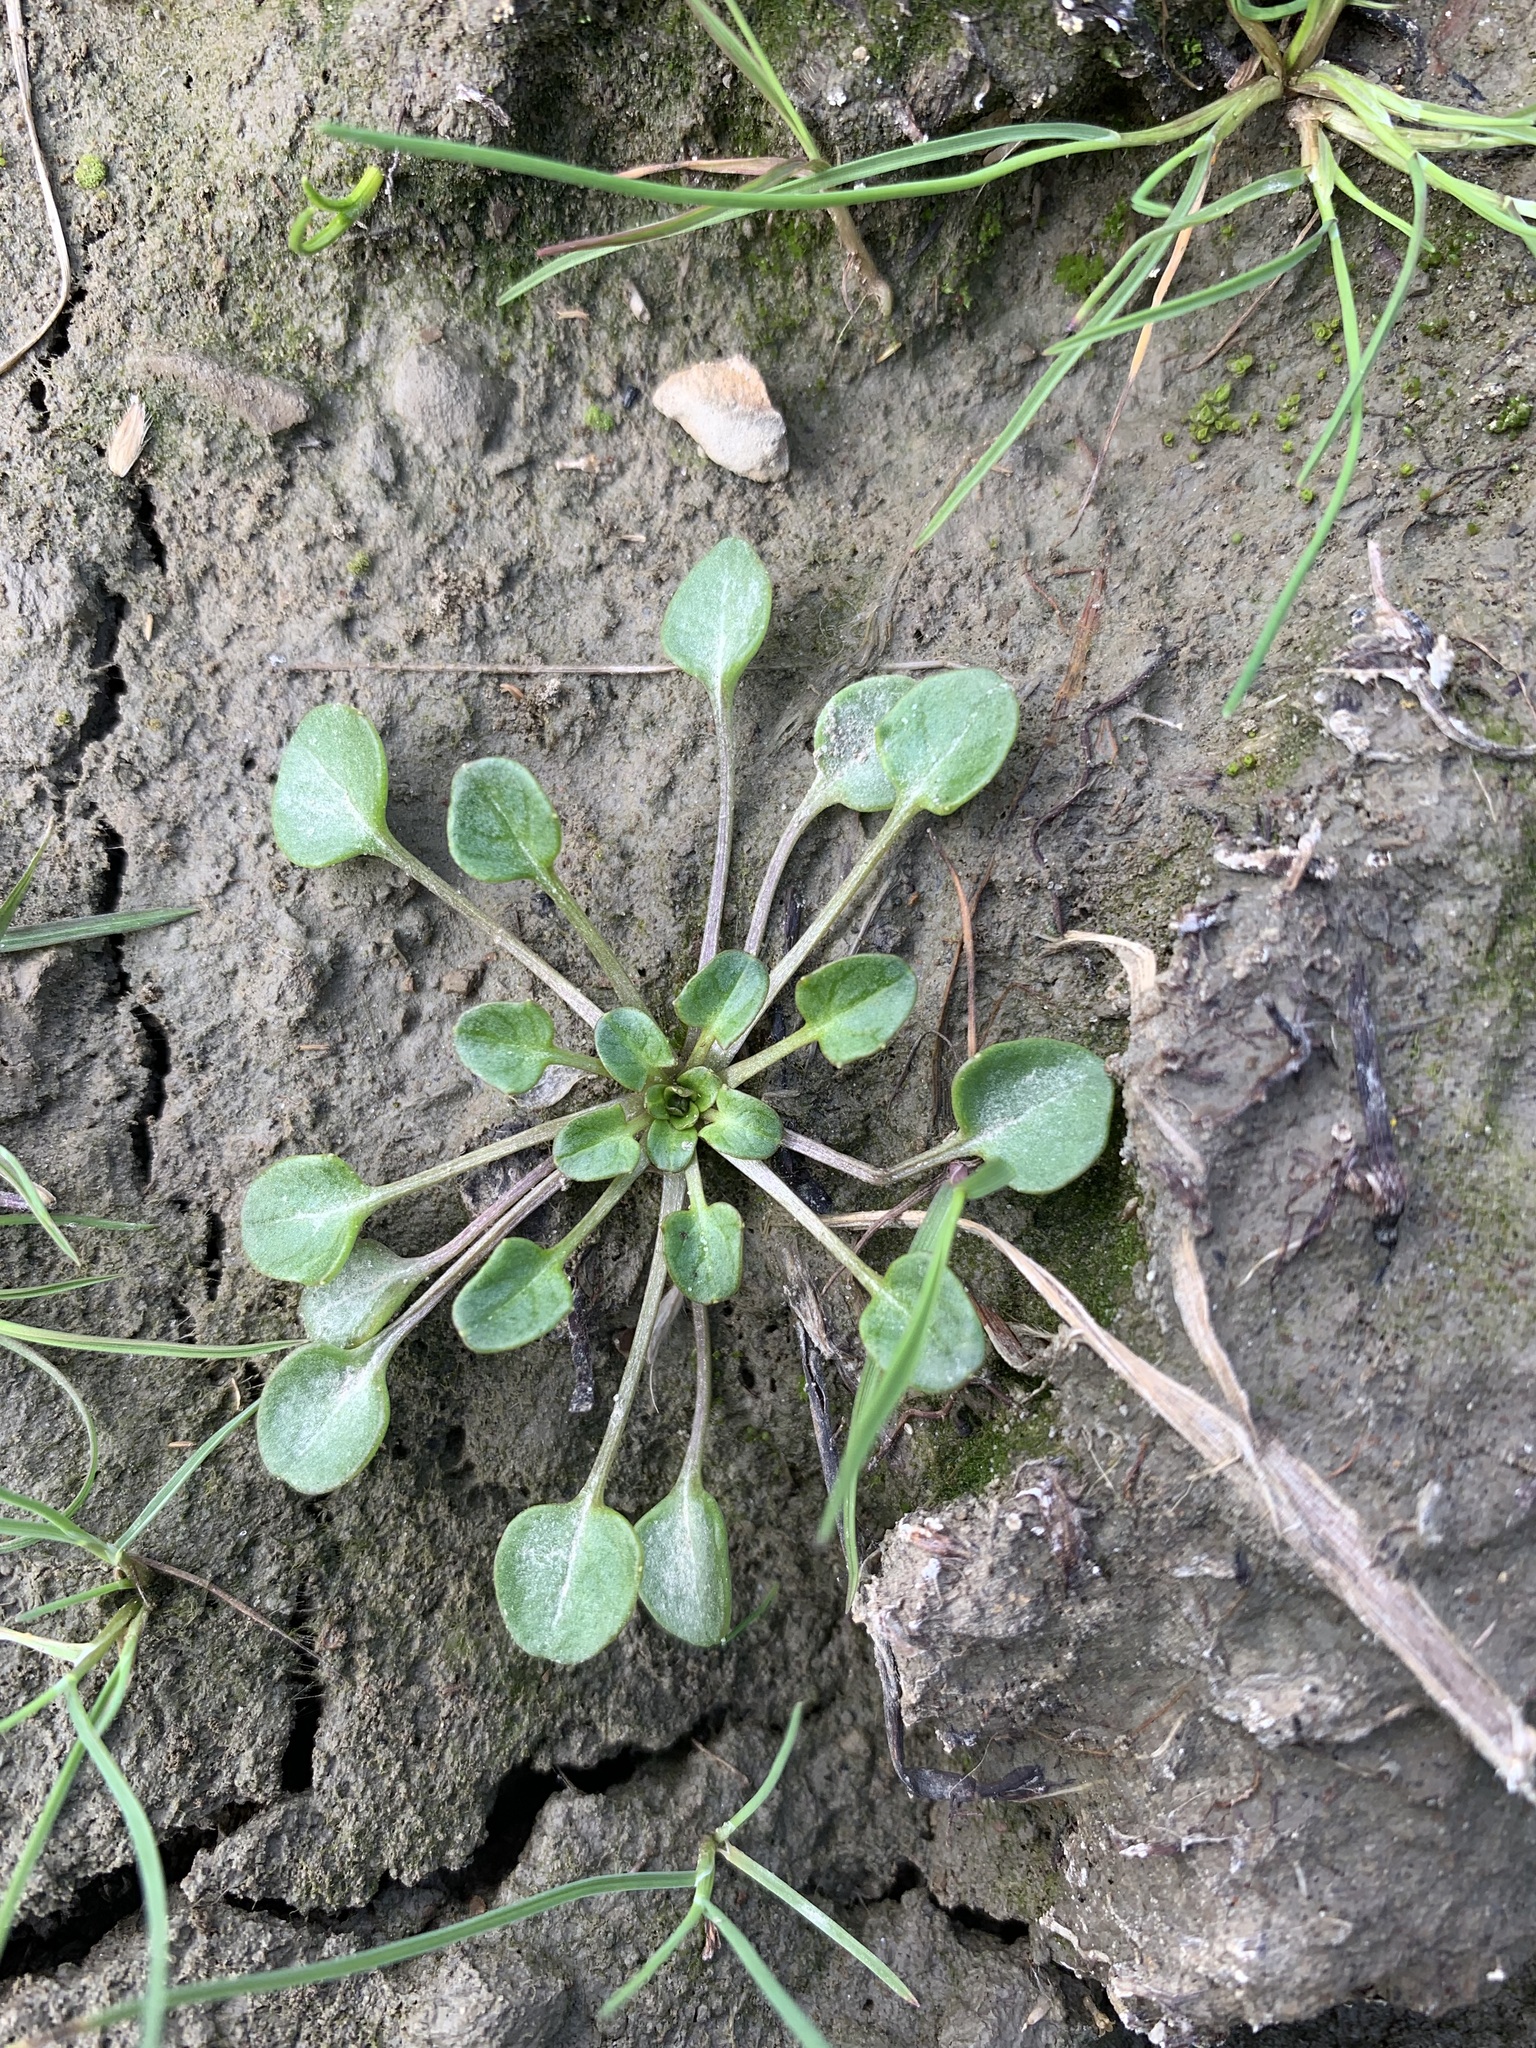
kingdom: Plantae
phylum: Tracheophyta
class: Magnoliopsida
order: Brassicales
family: Brassicaceae
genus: Cochlearia
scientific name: Cochlearia groenlandica
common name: Danish scurvygrass
